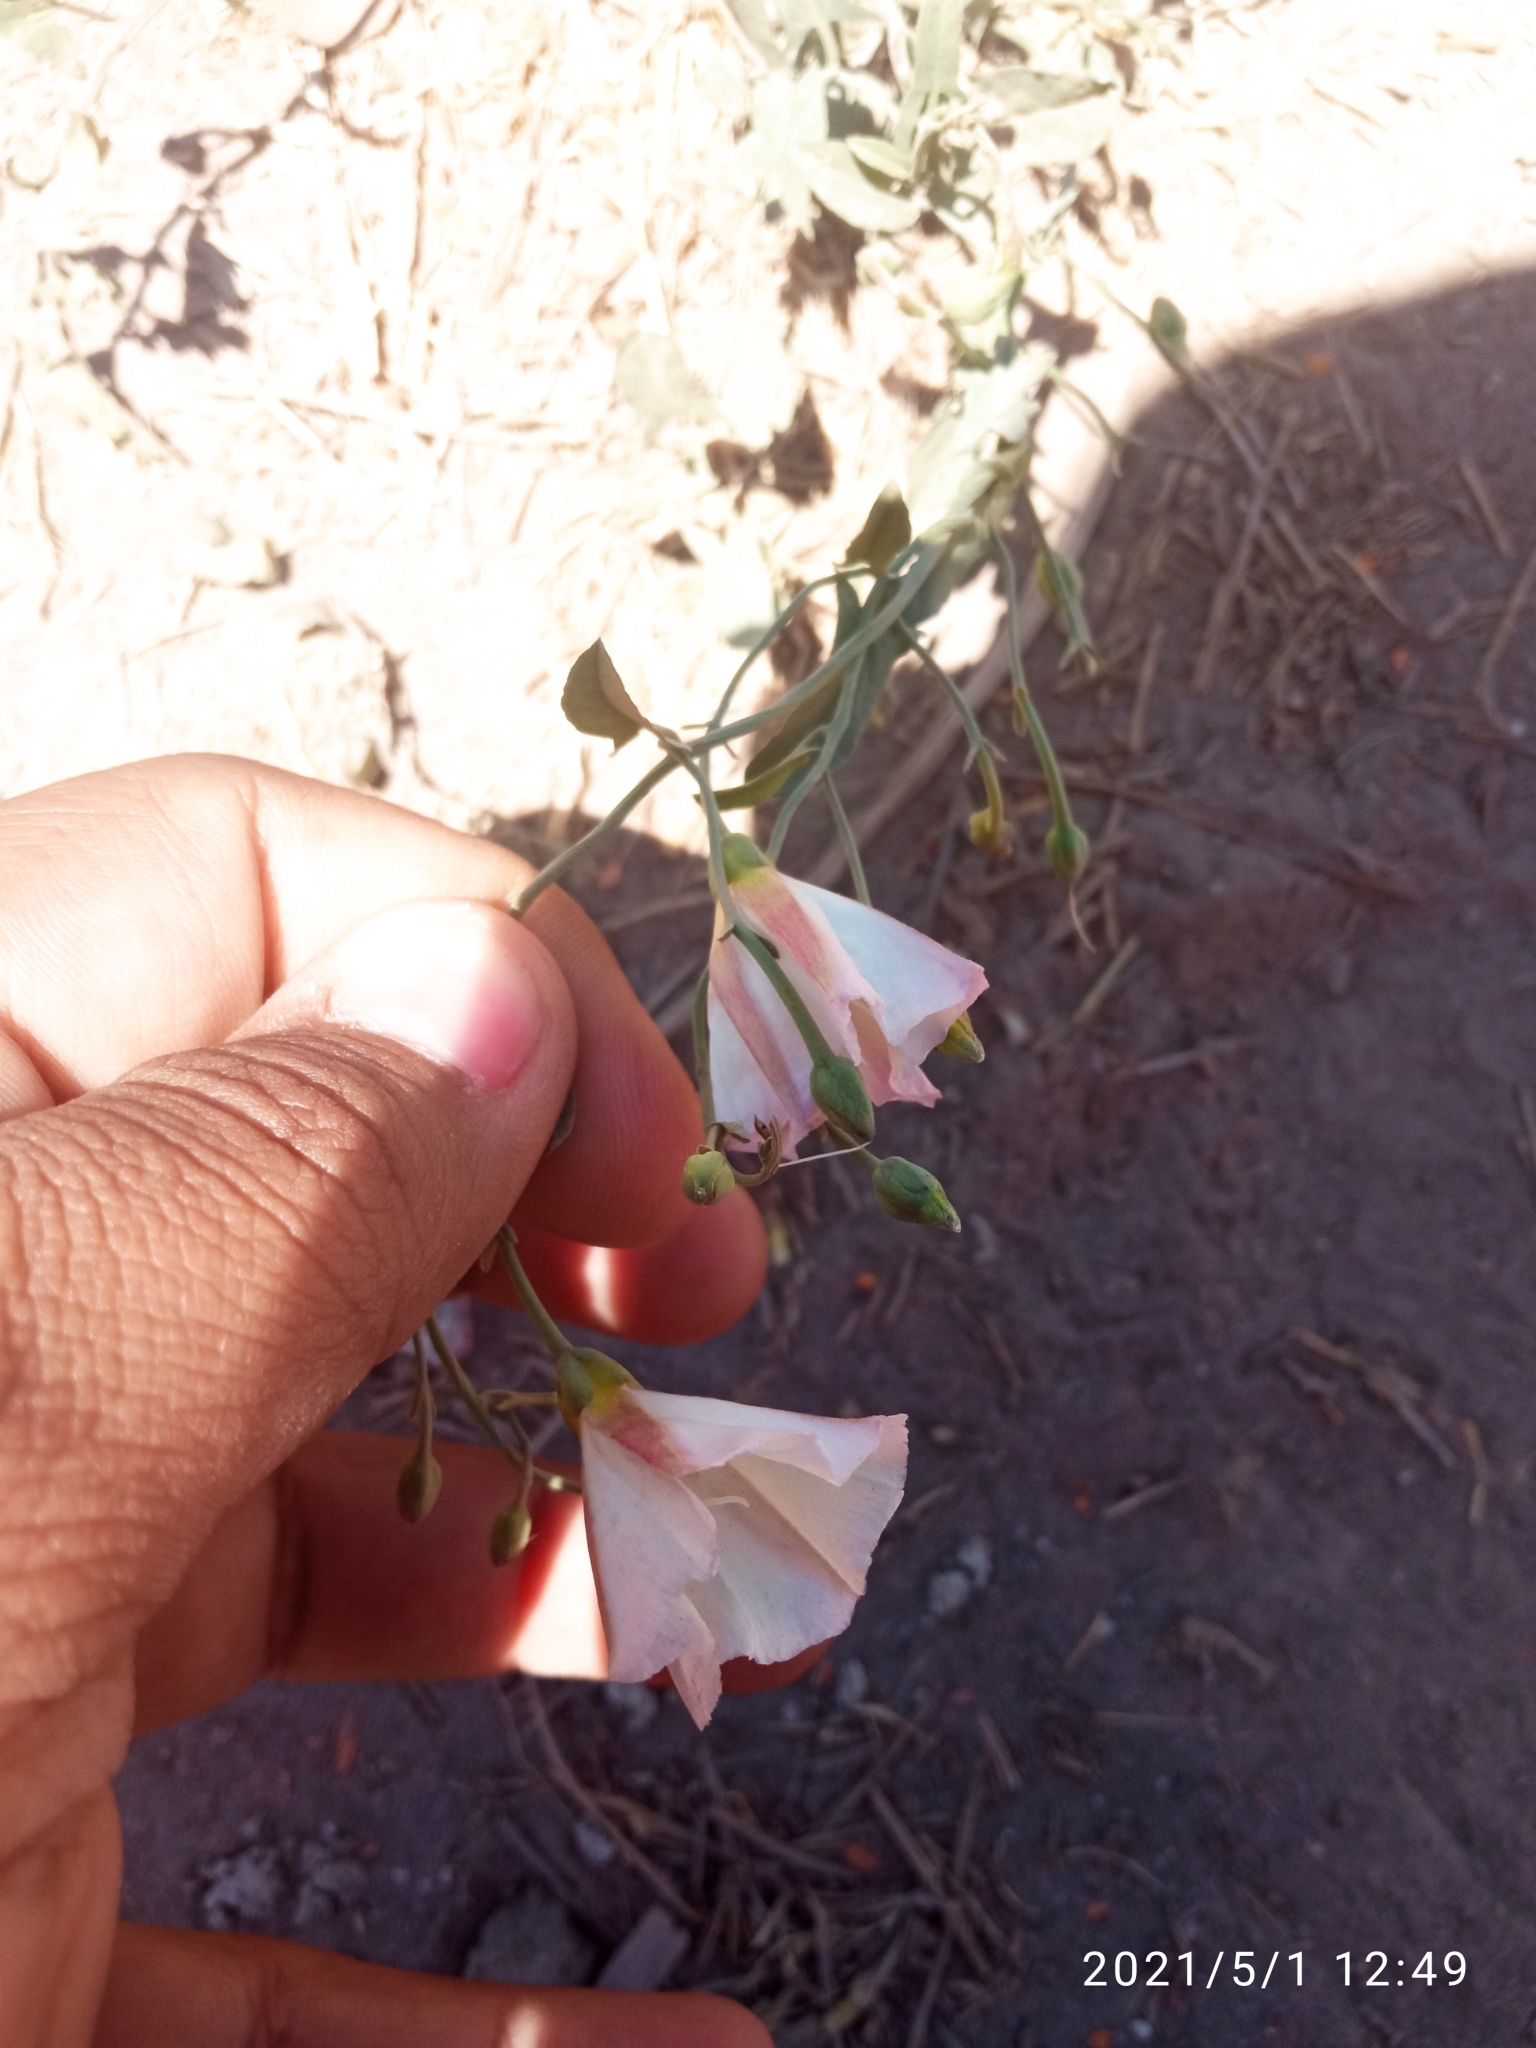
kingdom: Plantae
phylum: Tracheophyta
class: Magnoliopsida
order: Solanales
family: Convolvulaceae
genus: Convolvulus
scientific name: Convolvulus arvensis
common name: Field bindweed
